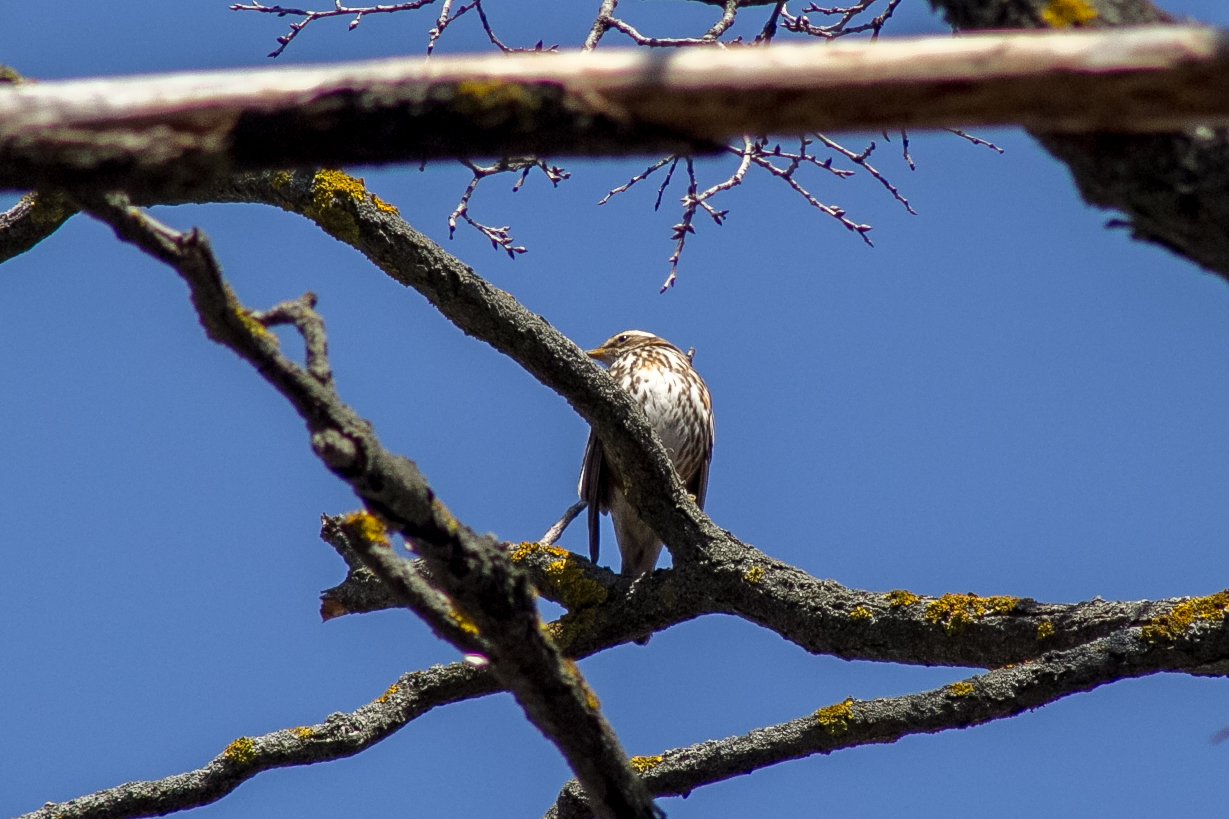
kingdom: Animalia
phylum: Chordata
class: Aves
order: Passeriformes
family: Turdidae
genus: Turdus
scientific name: Turdus iliacus
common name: Redwing
